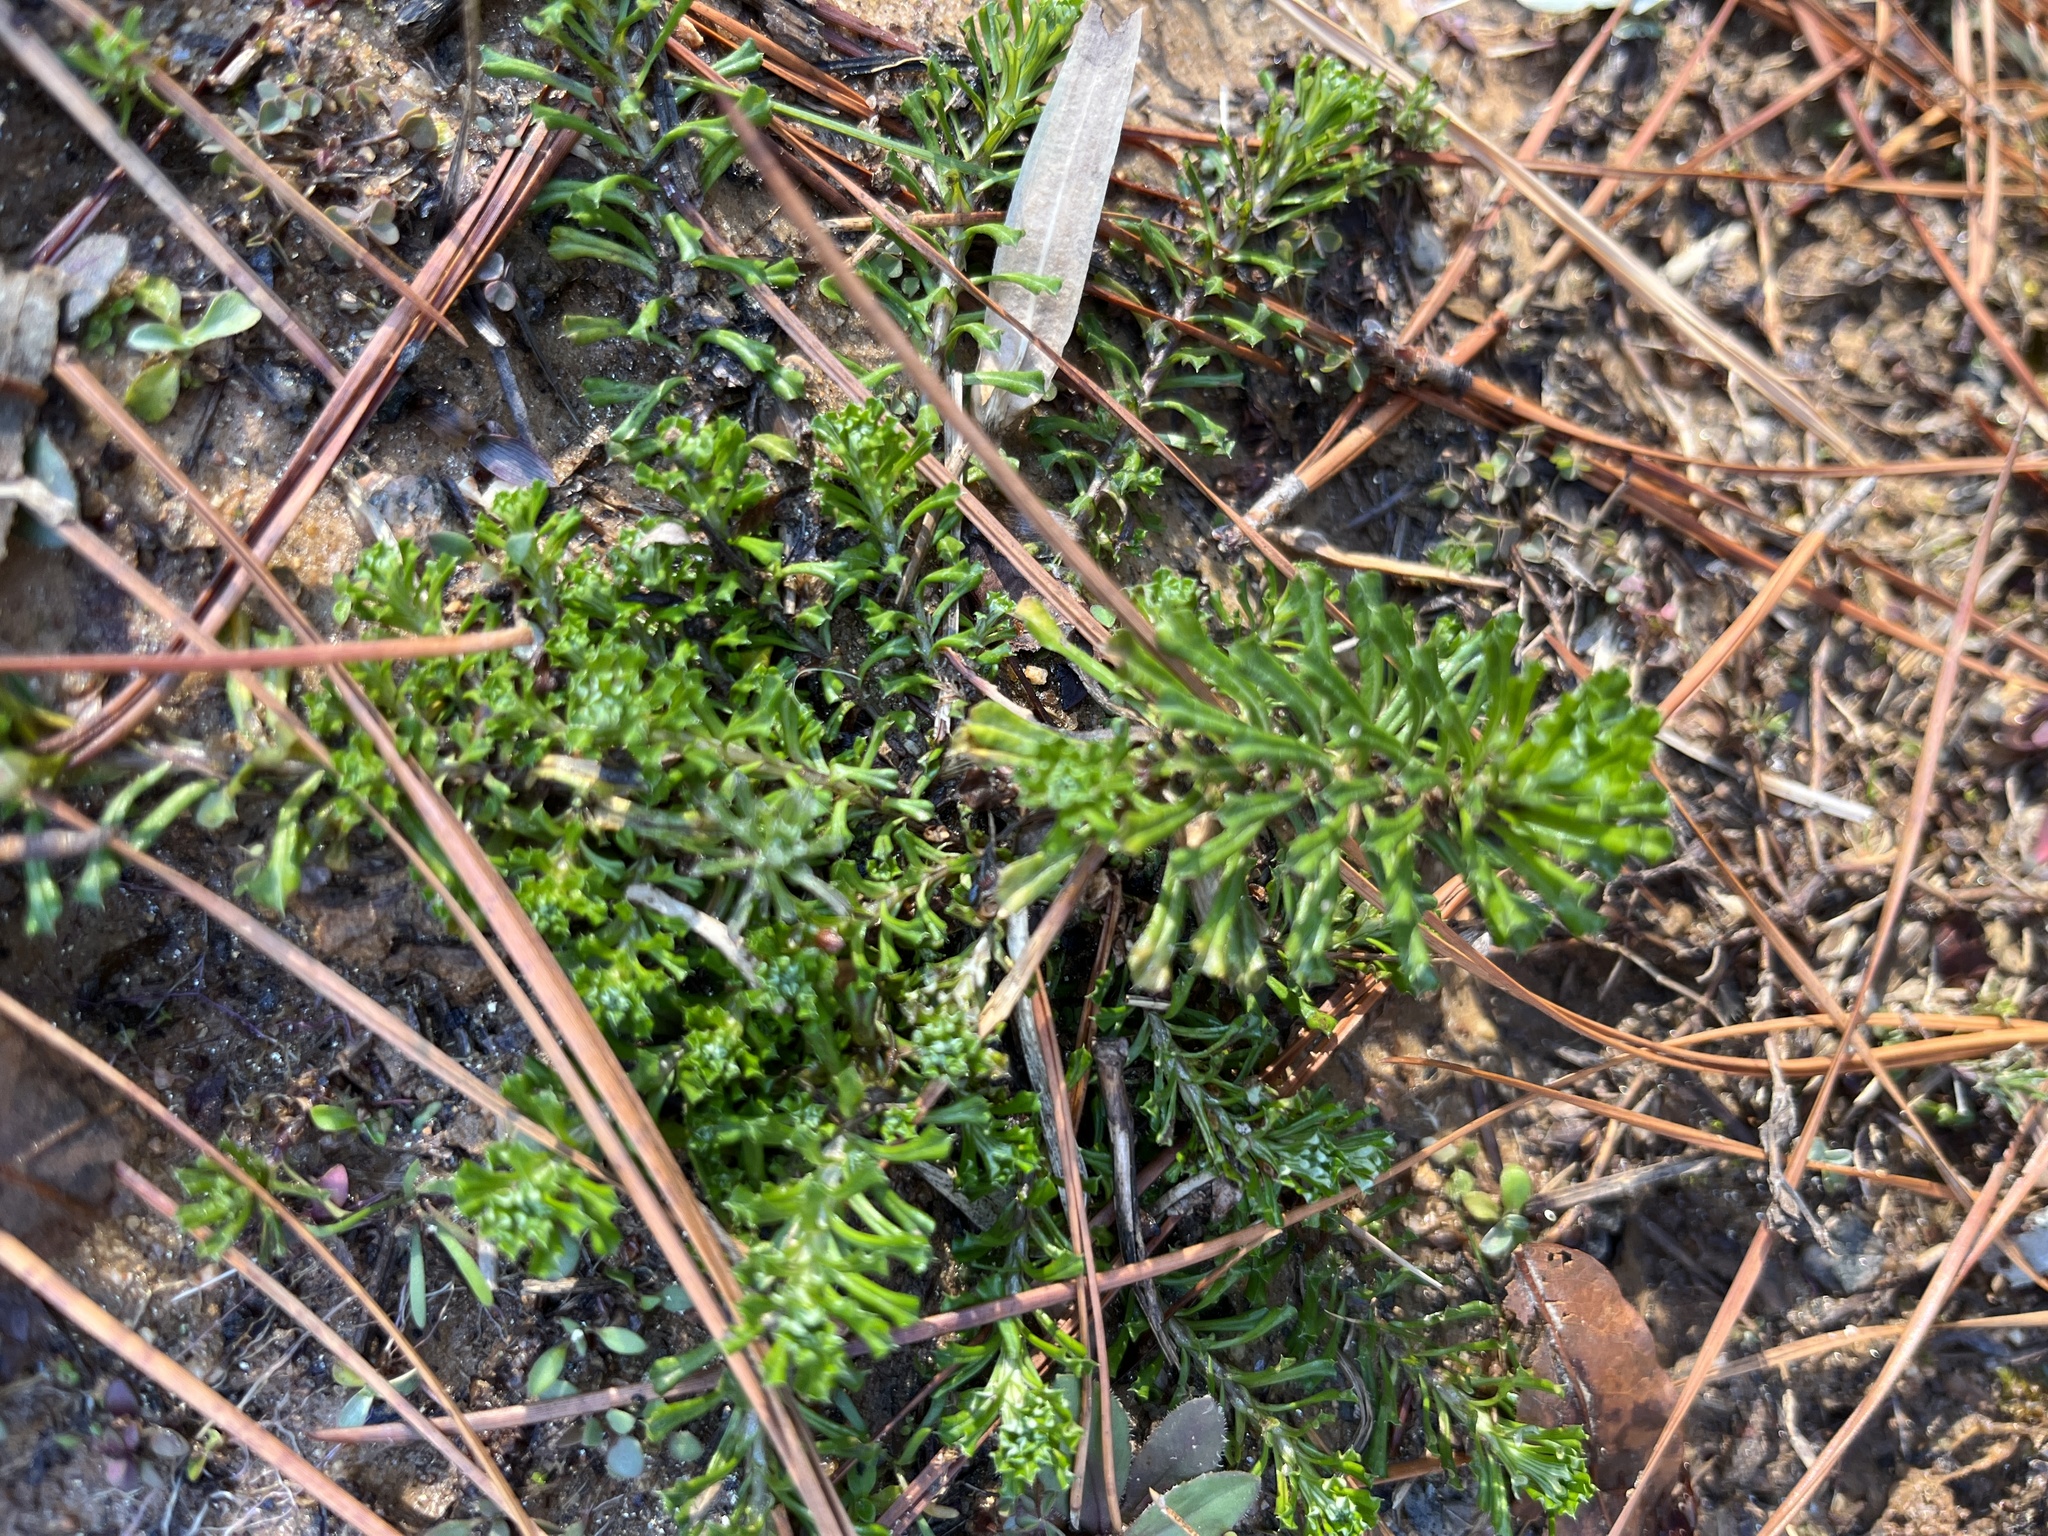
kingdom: Plantae
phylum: Tracheophyta
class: Magnoliopsida
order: Asterales
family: Asteraceae
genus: Facelis
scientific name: Facelis retusa
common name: Annual trampweed
